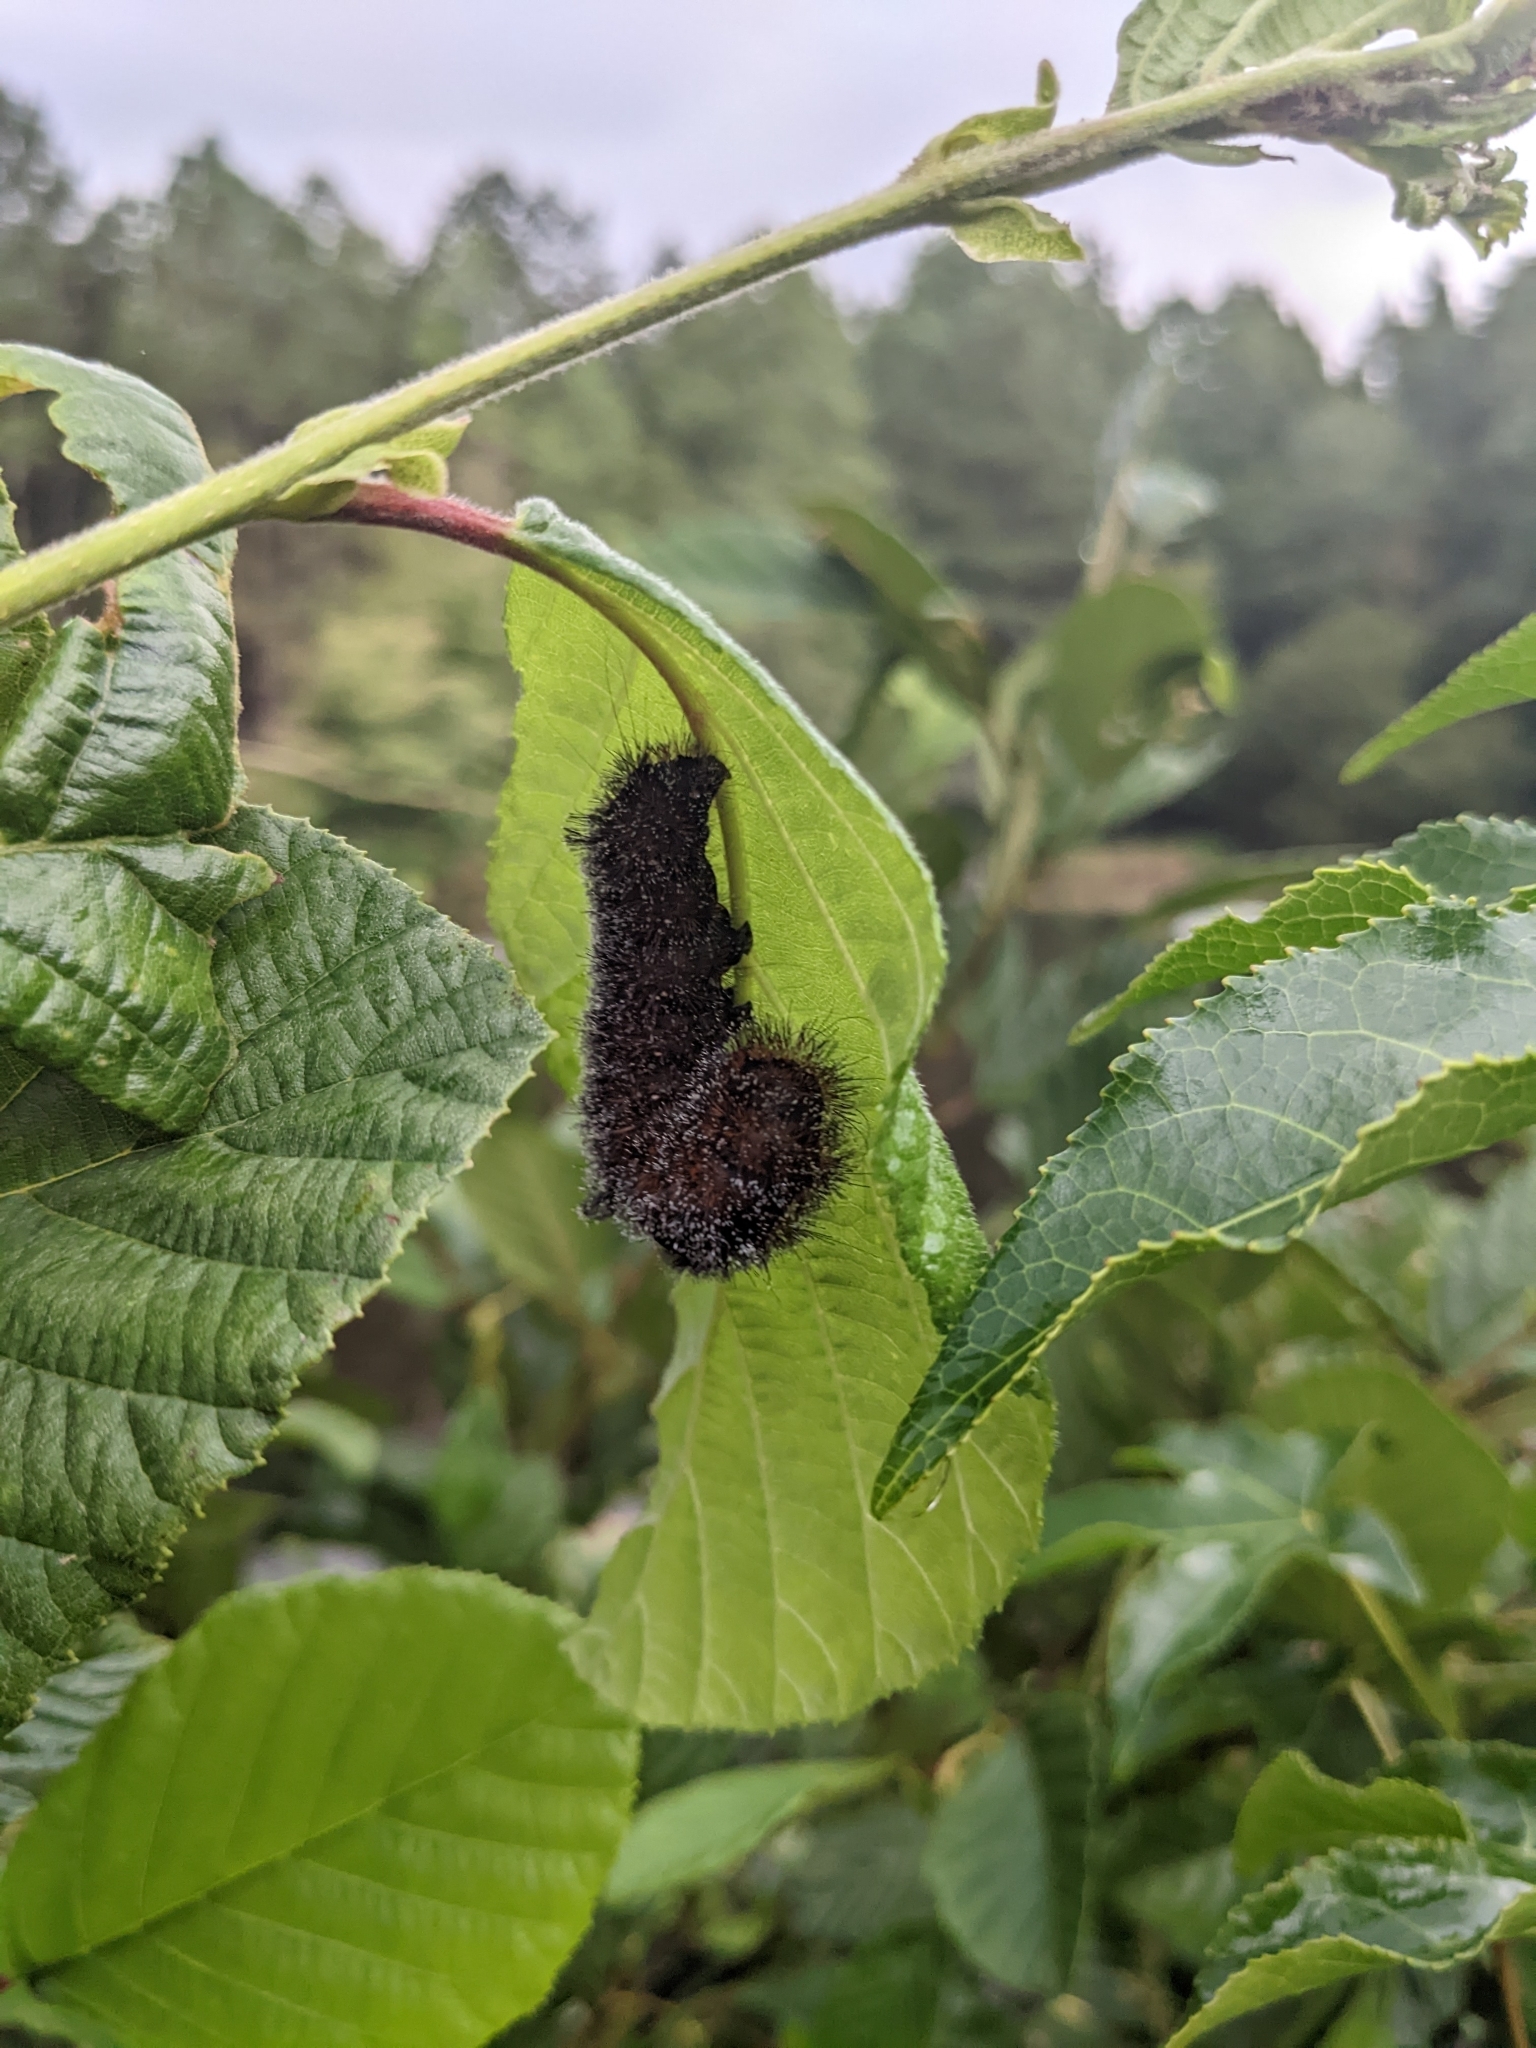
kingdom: Animalia
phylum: Arthropoda
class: Insecta
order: Lepidoptera
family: Noctuidae
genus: Acronicta
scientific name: Acronicta hastulifera
